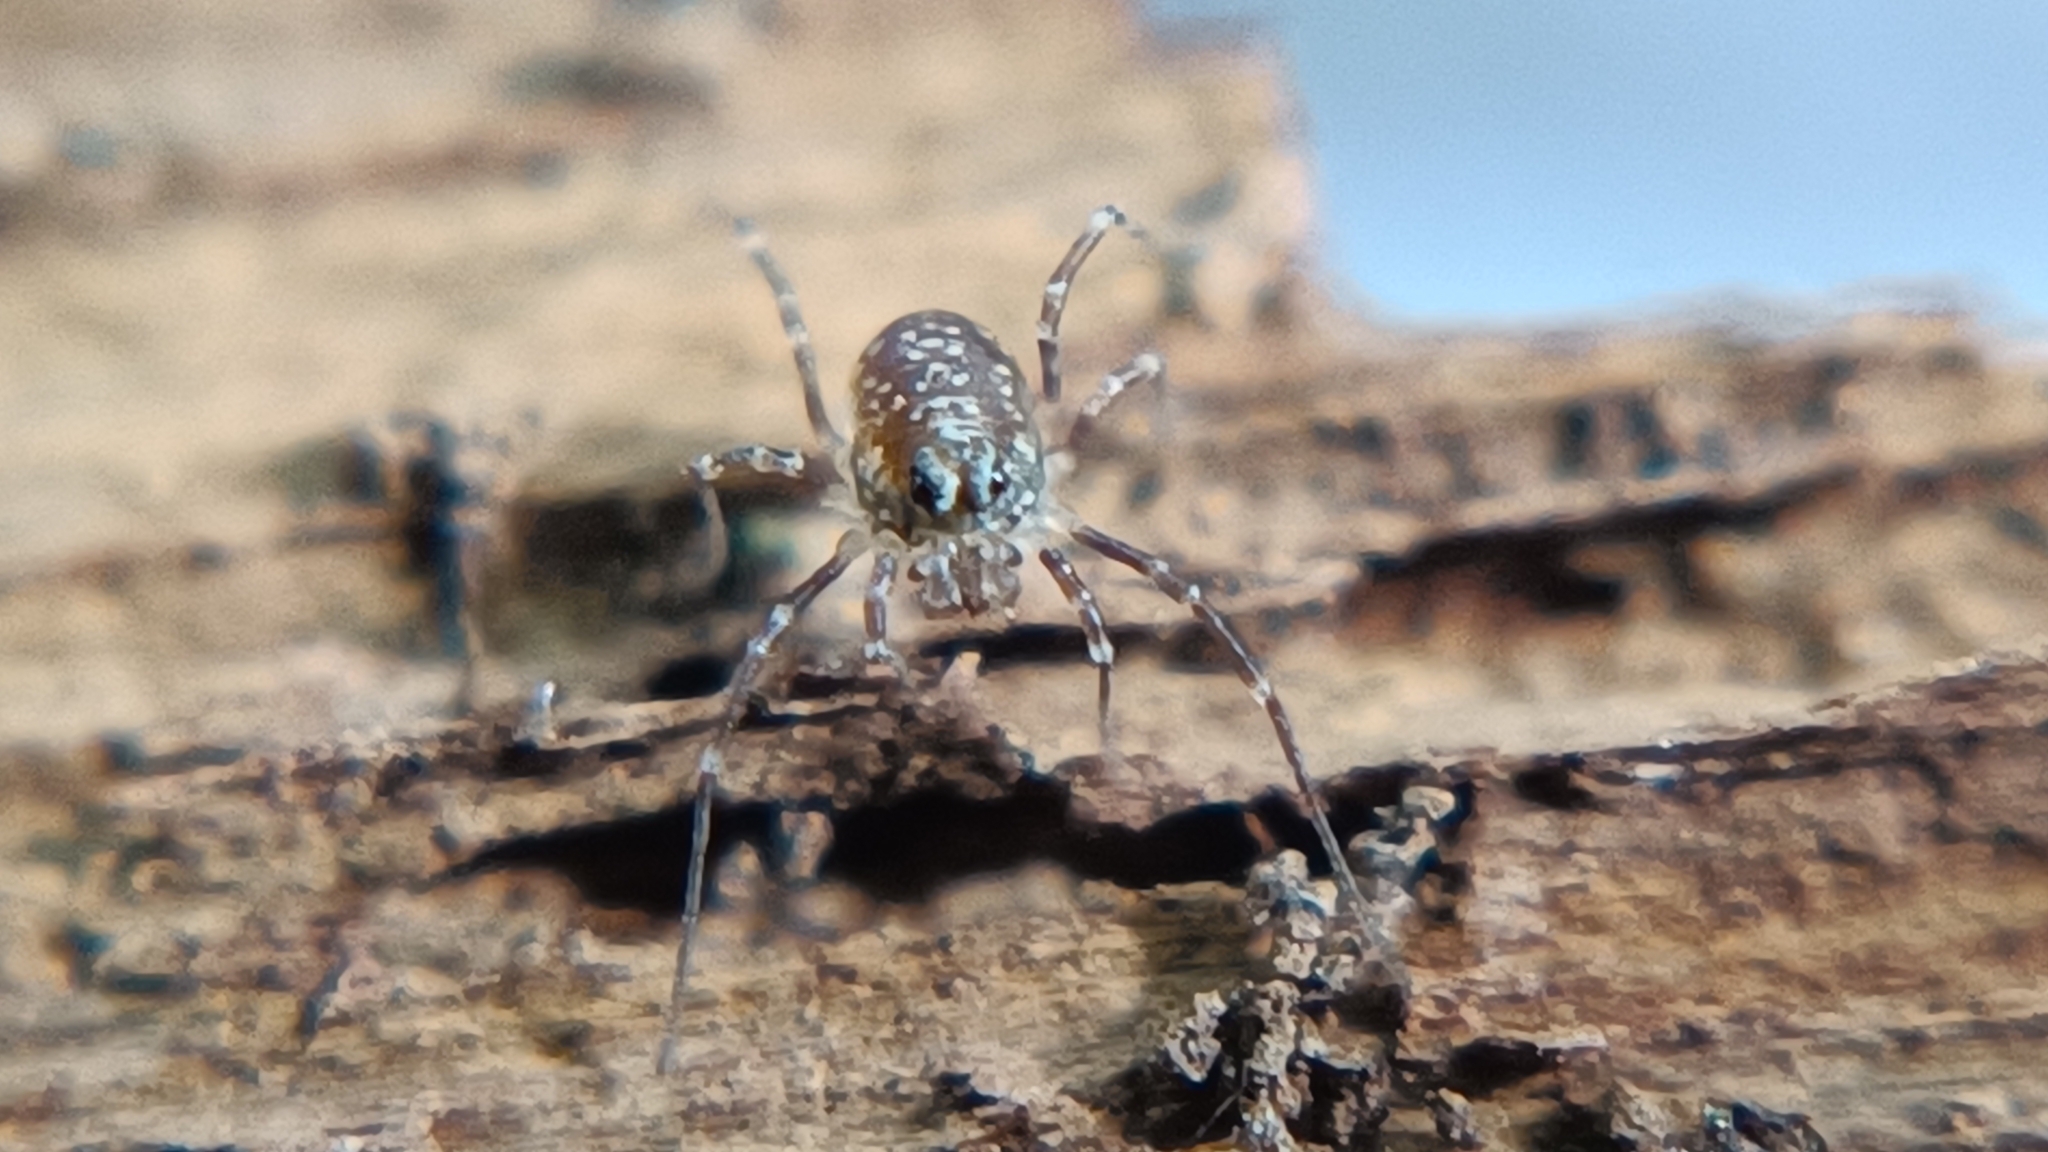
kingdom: Animalia
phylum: Arthropoda
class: Arachnida
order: Opiliones
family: Phalangiidae
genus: Rilaena
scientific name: Rilaena triangularis
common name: Spring harvestman
